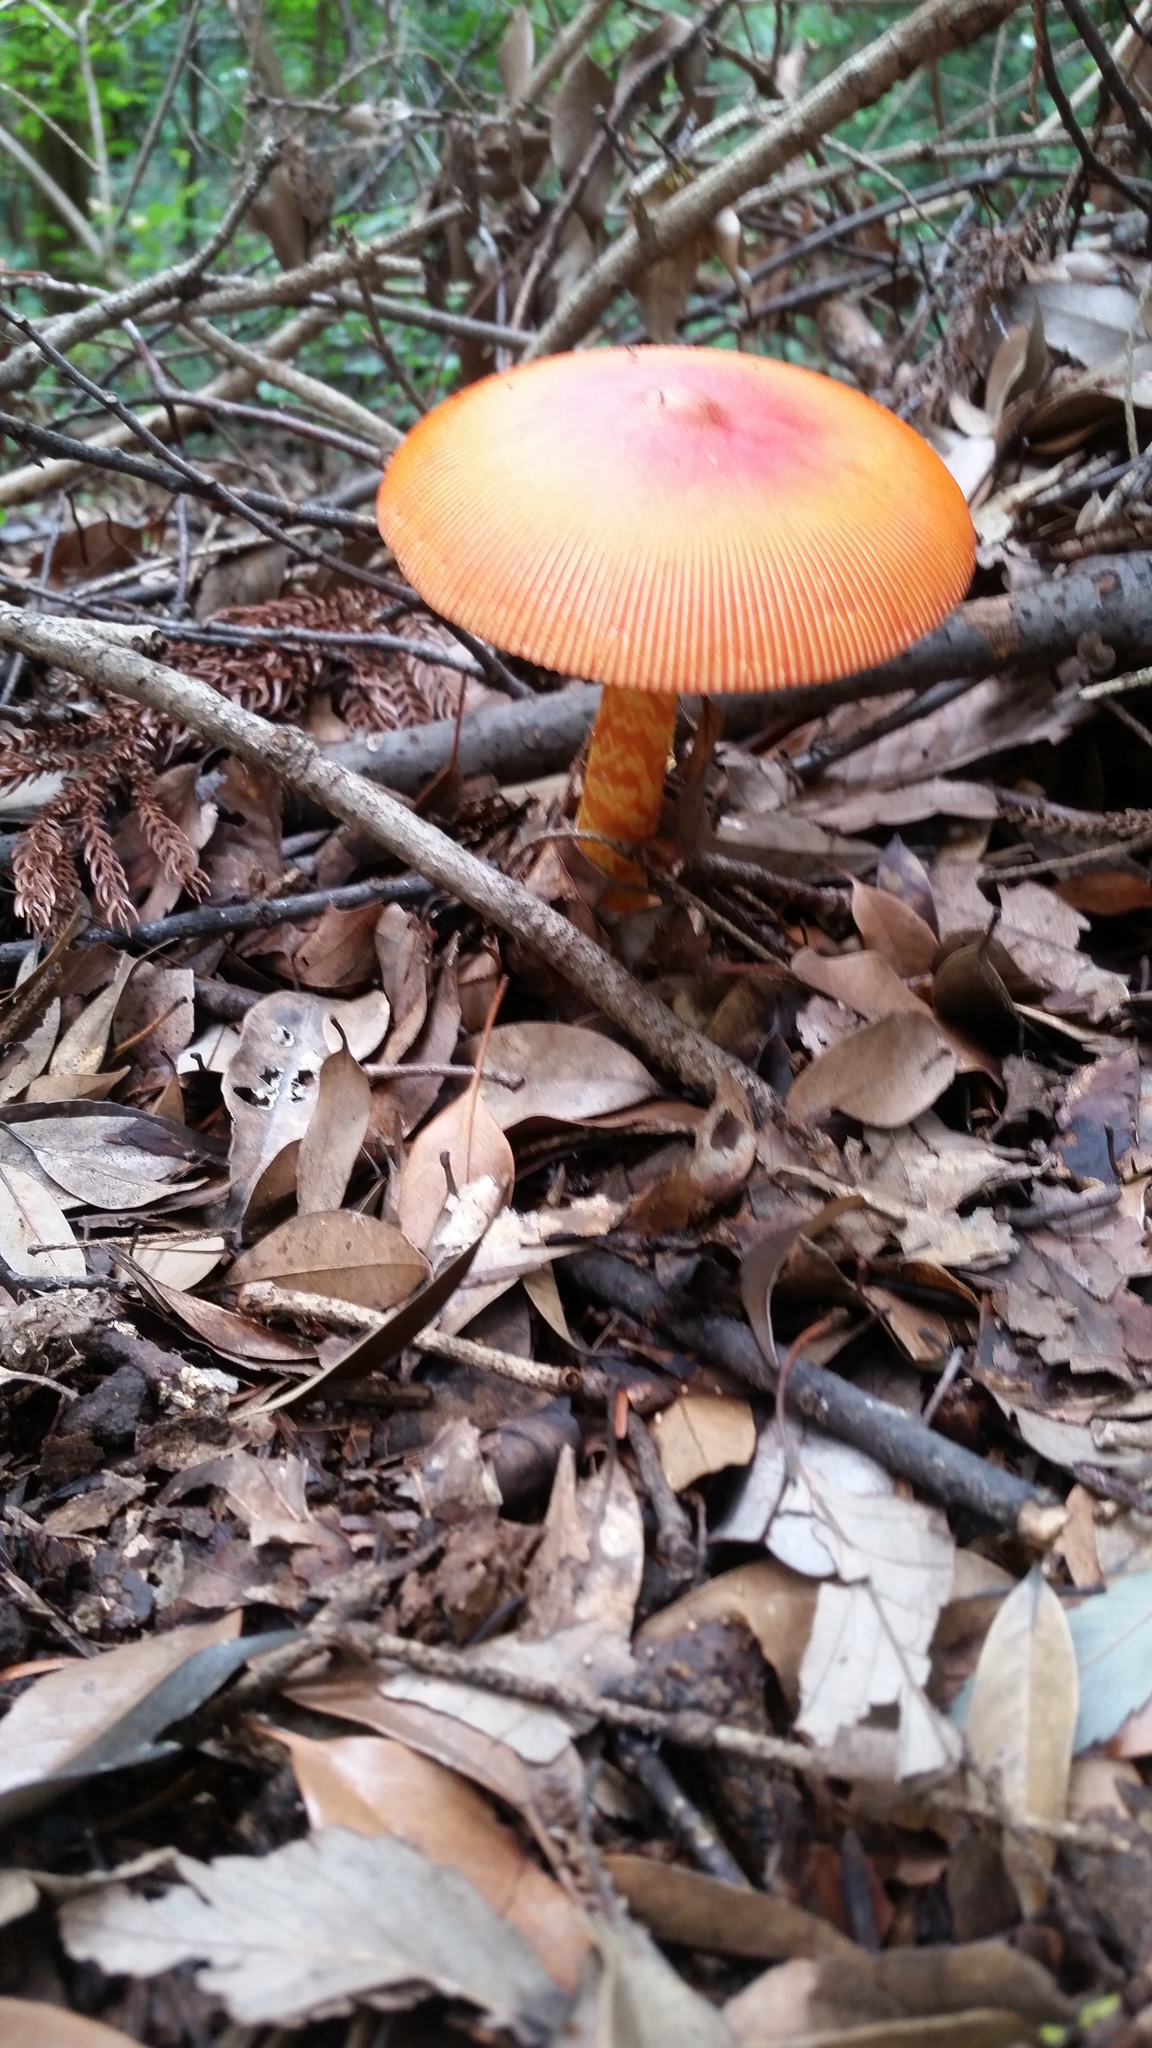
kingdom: Fungi
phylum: Basidiomycota
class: Agaricomycetes
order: Agaricales
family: Amanitaceae
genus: Amanita
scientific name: Amanita caesareoides
